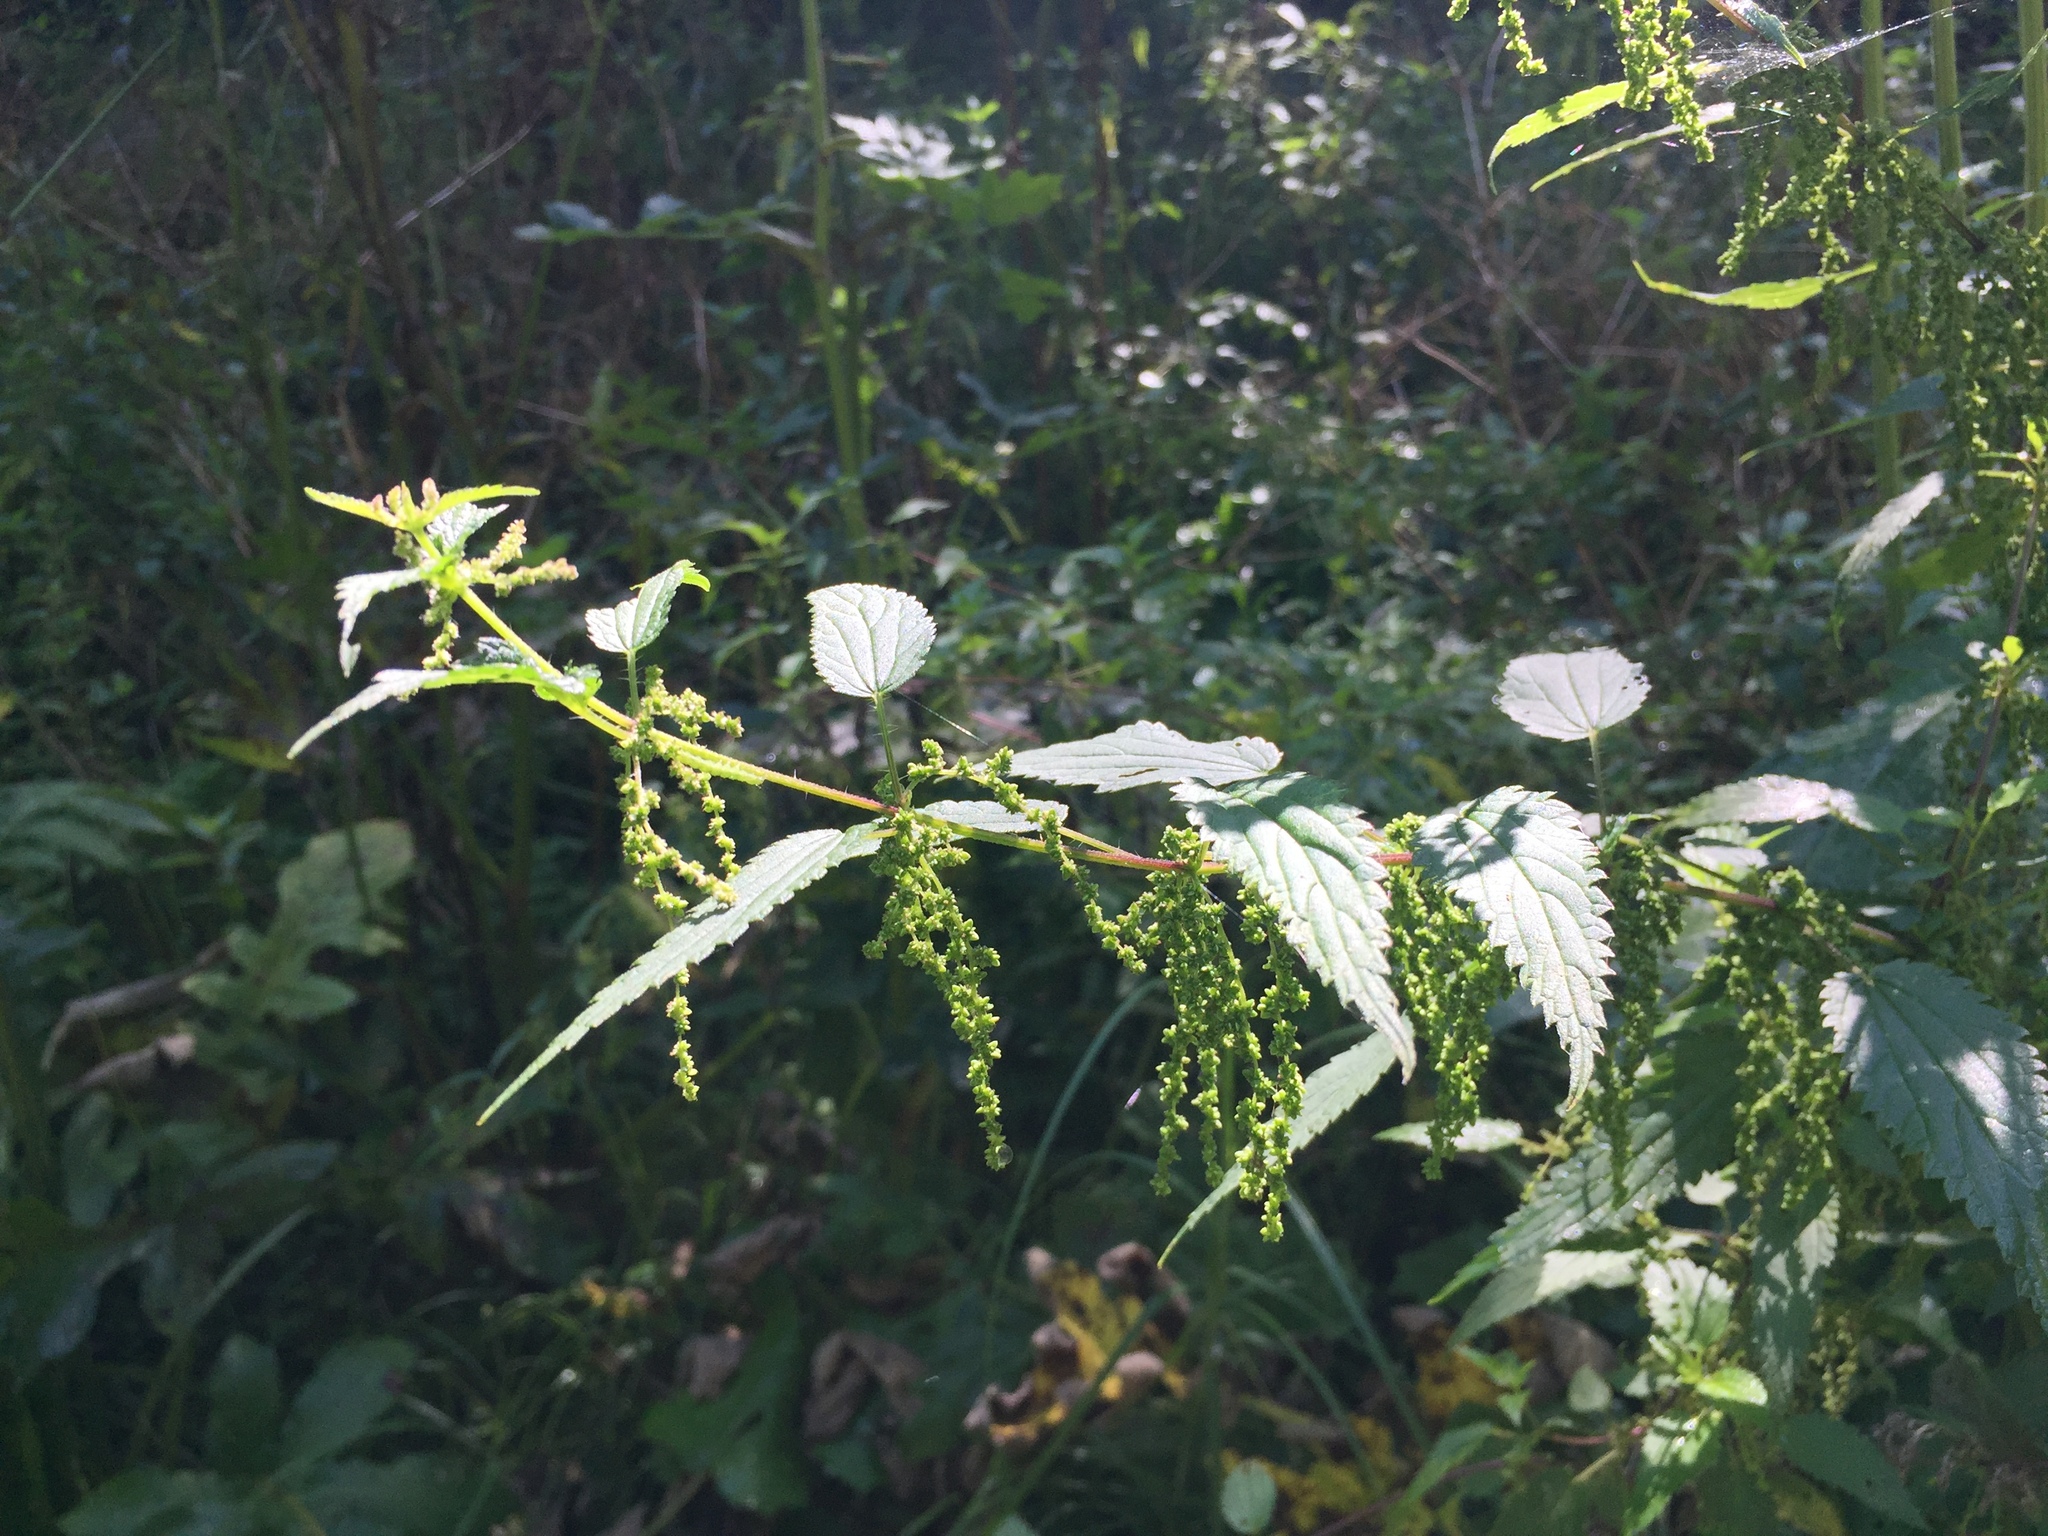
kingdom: Plantae
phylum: Tracheophyta
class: Magnoliopsida
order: Rosales
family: Urticaceae
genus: Urtica
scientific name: Urtica dioica
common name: Common nettle
